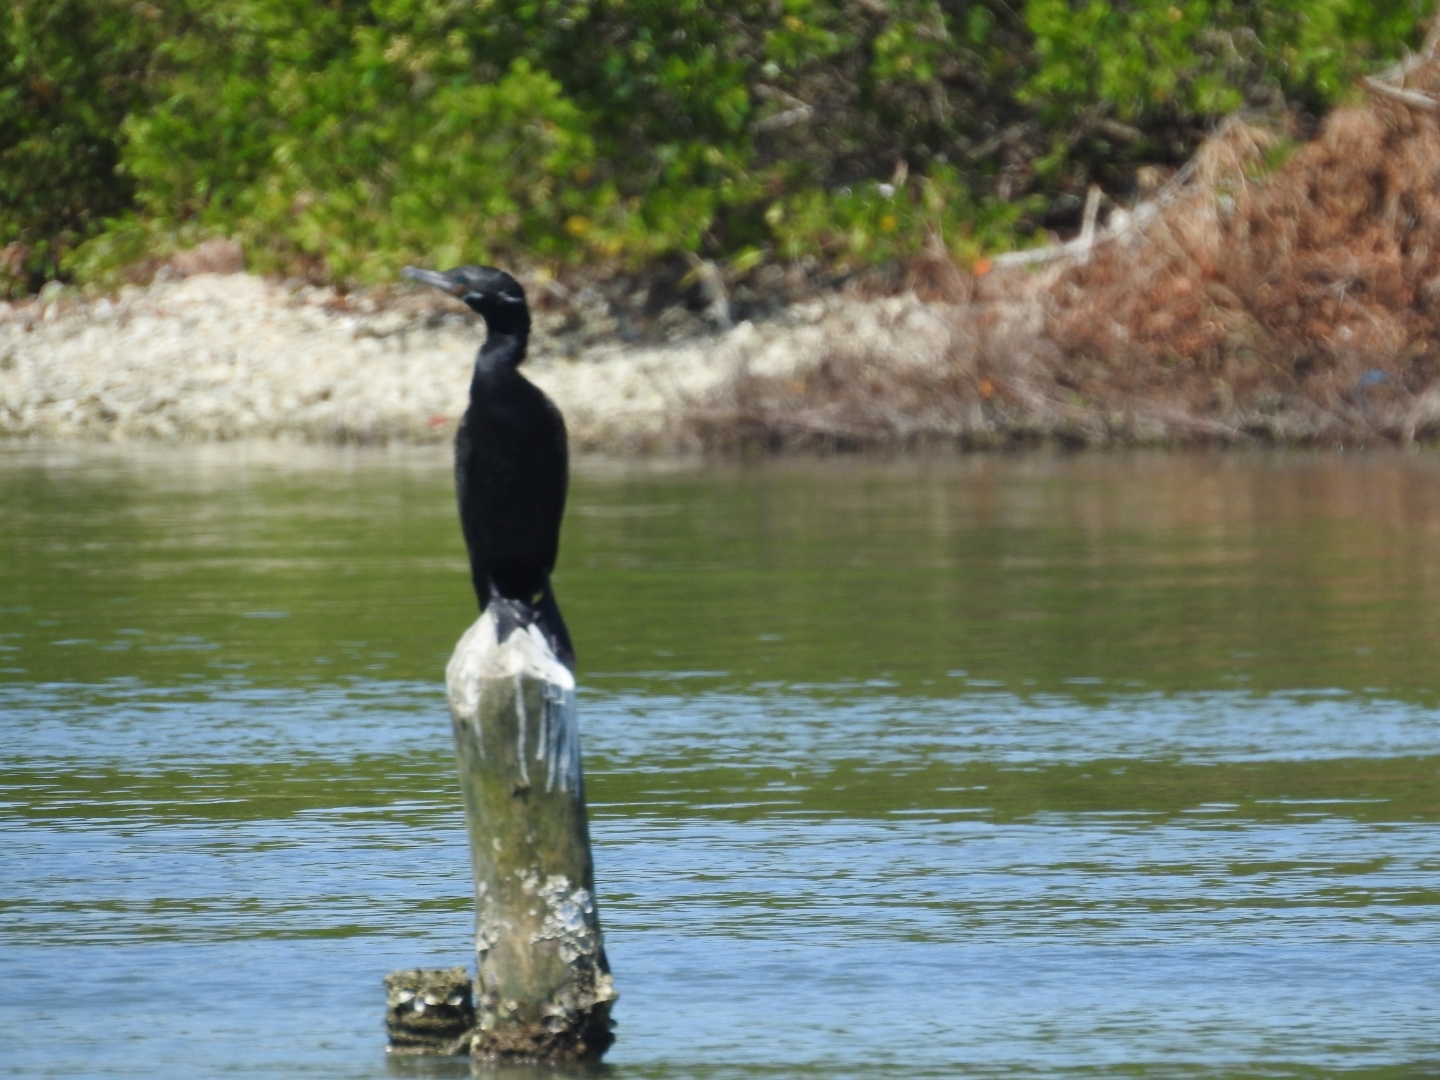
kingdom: Animalia
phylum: Chordata
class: Aves
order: Suliformes
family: Phalacrocoracidae
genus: Phalacrocorax
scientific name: Phalacrocorax brasilianus
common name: Neotropic cormorant
